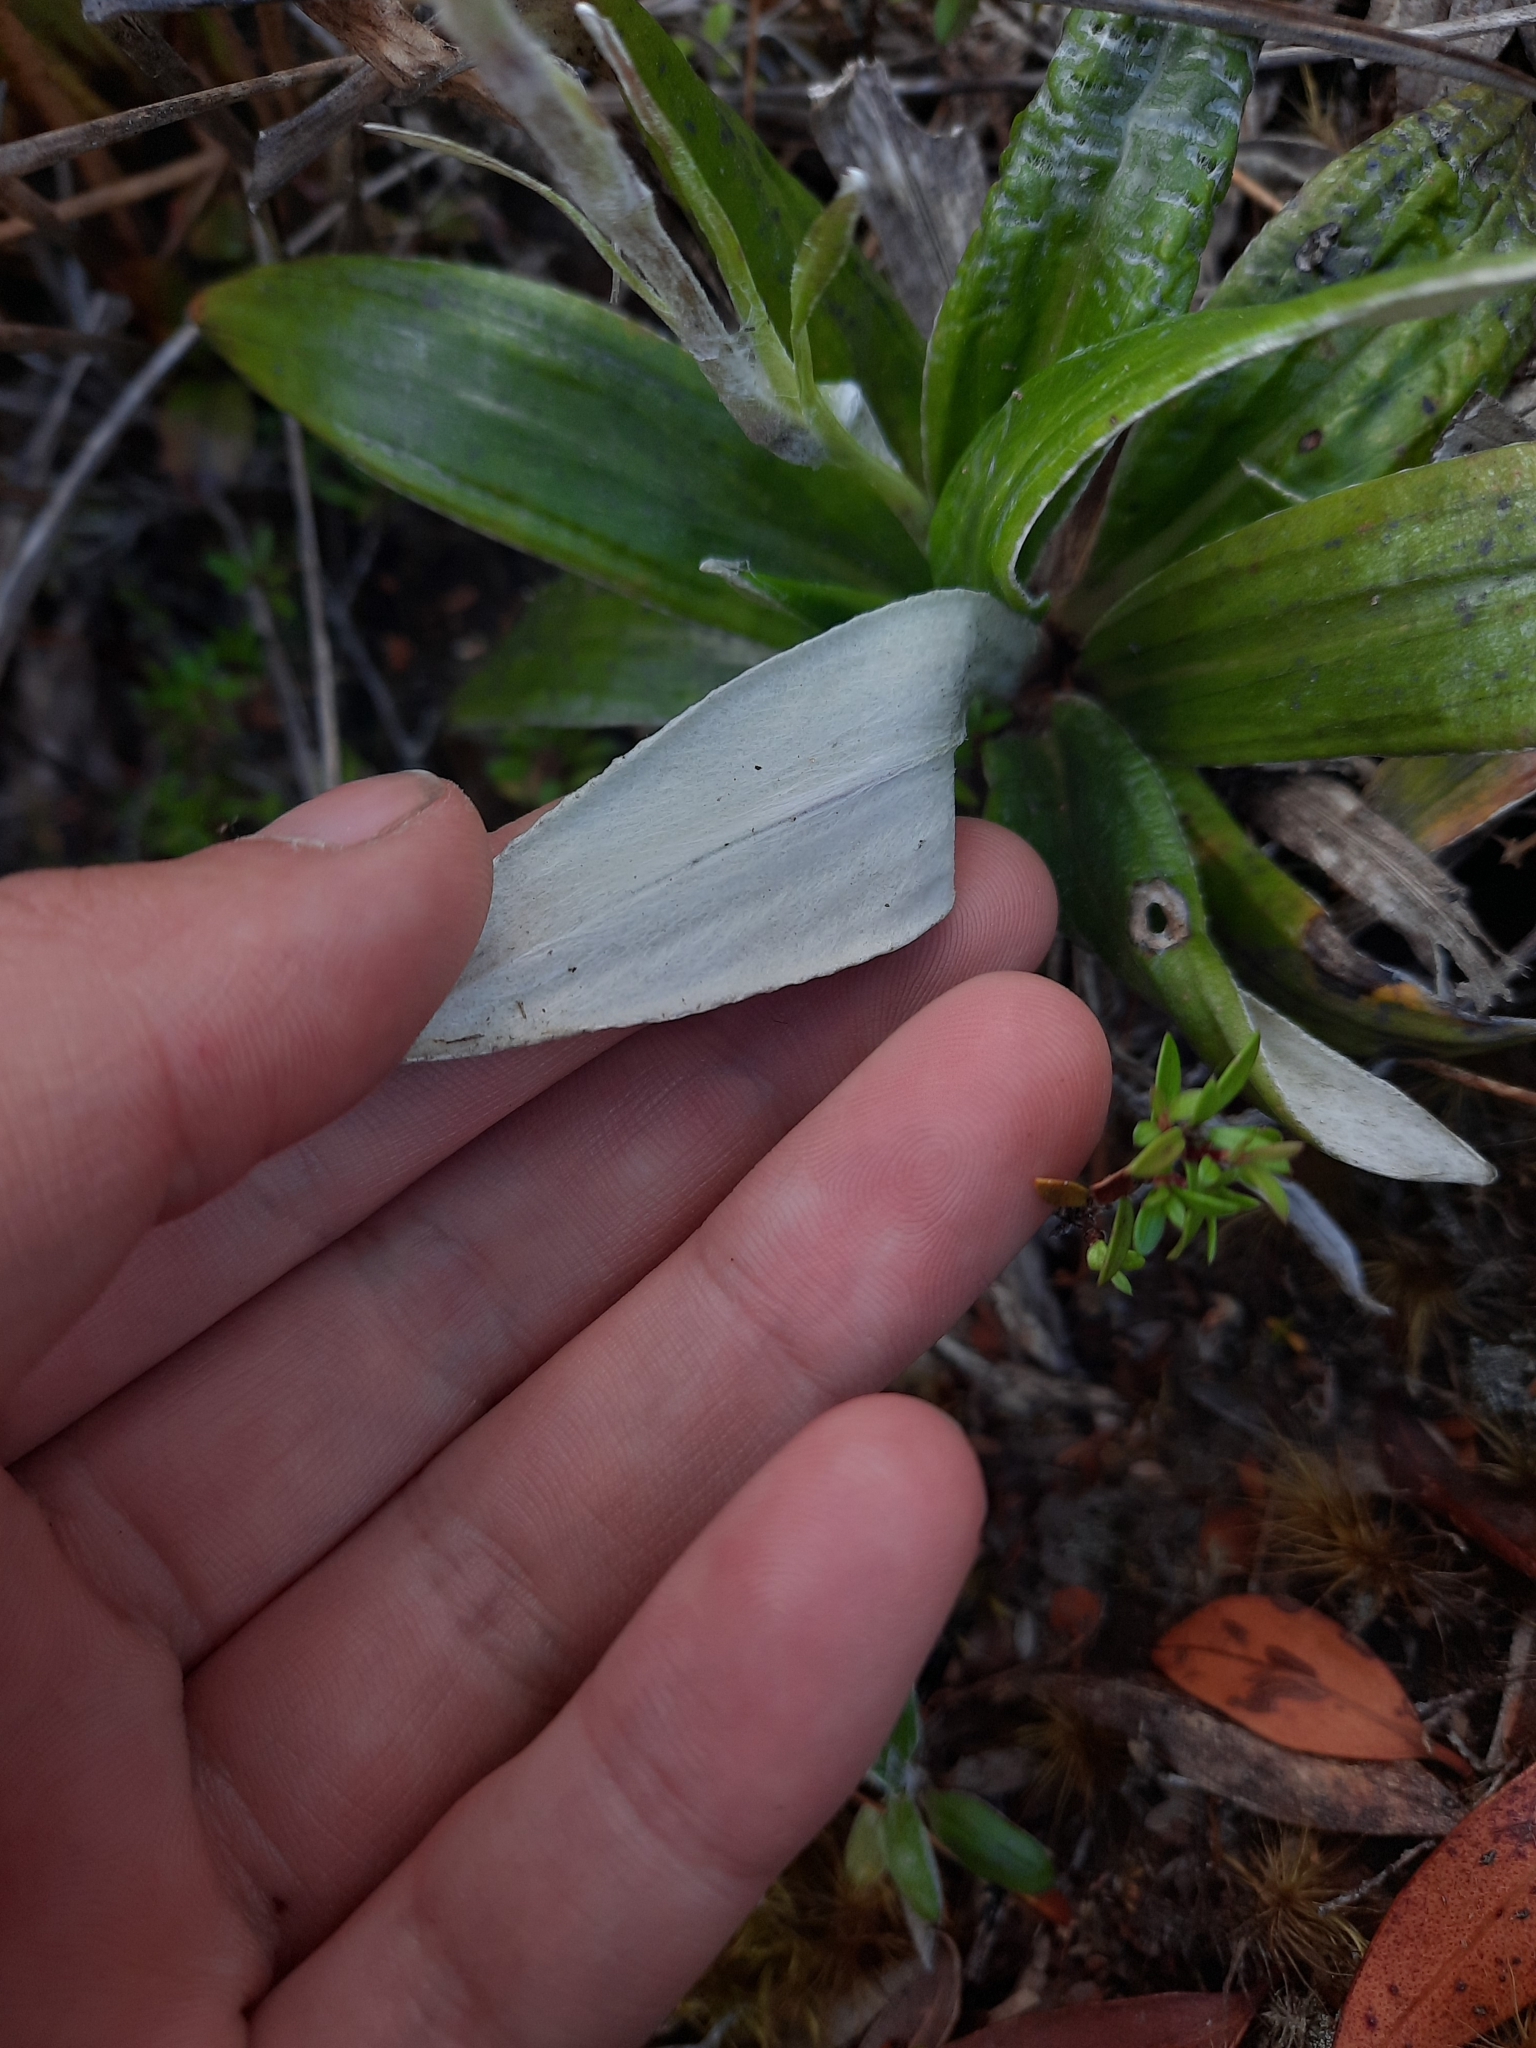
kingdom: Plantae
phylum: Tracheophyta
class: Magnoliopsida
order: Asterales
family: Asteraceae
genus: Celmisia
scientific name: Celmisia dubia
